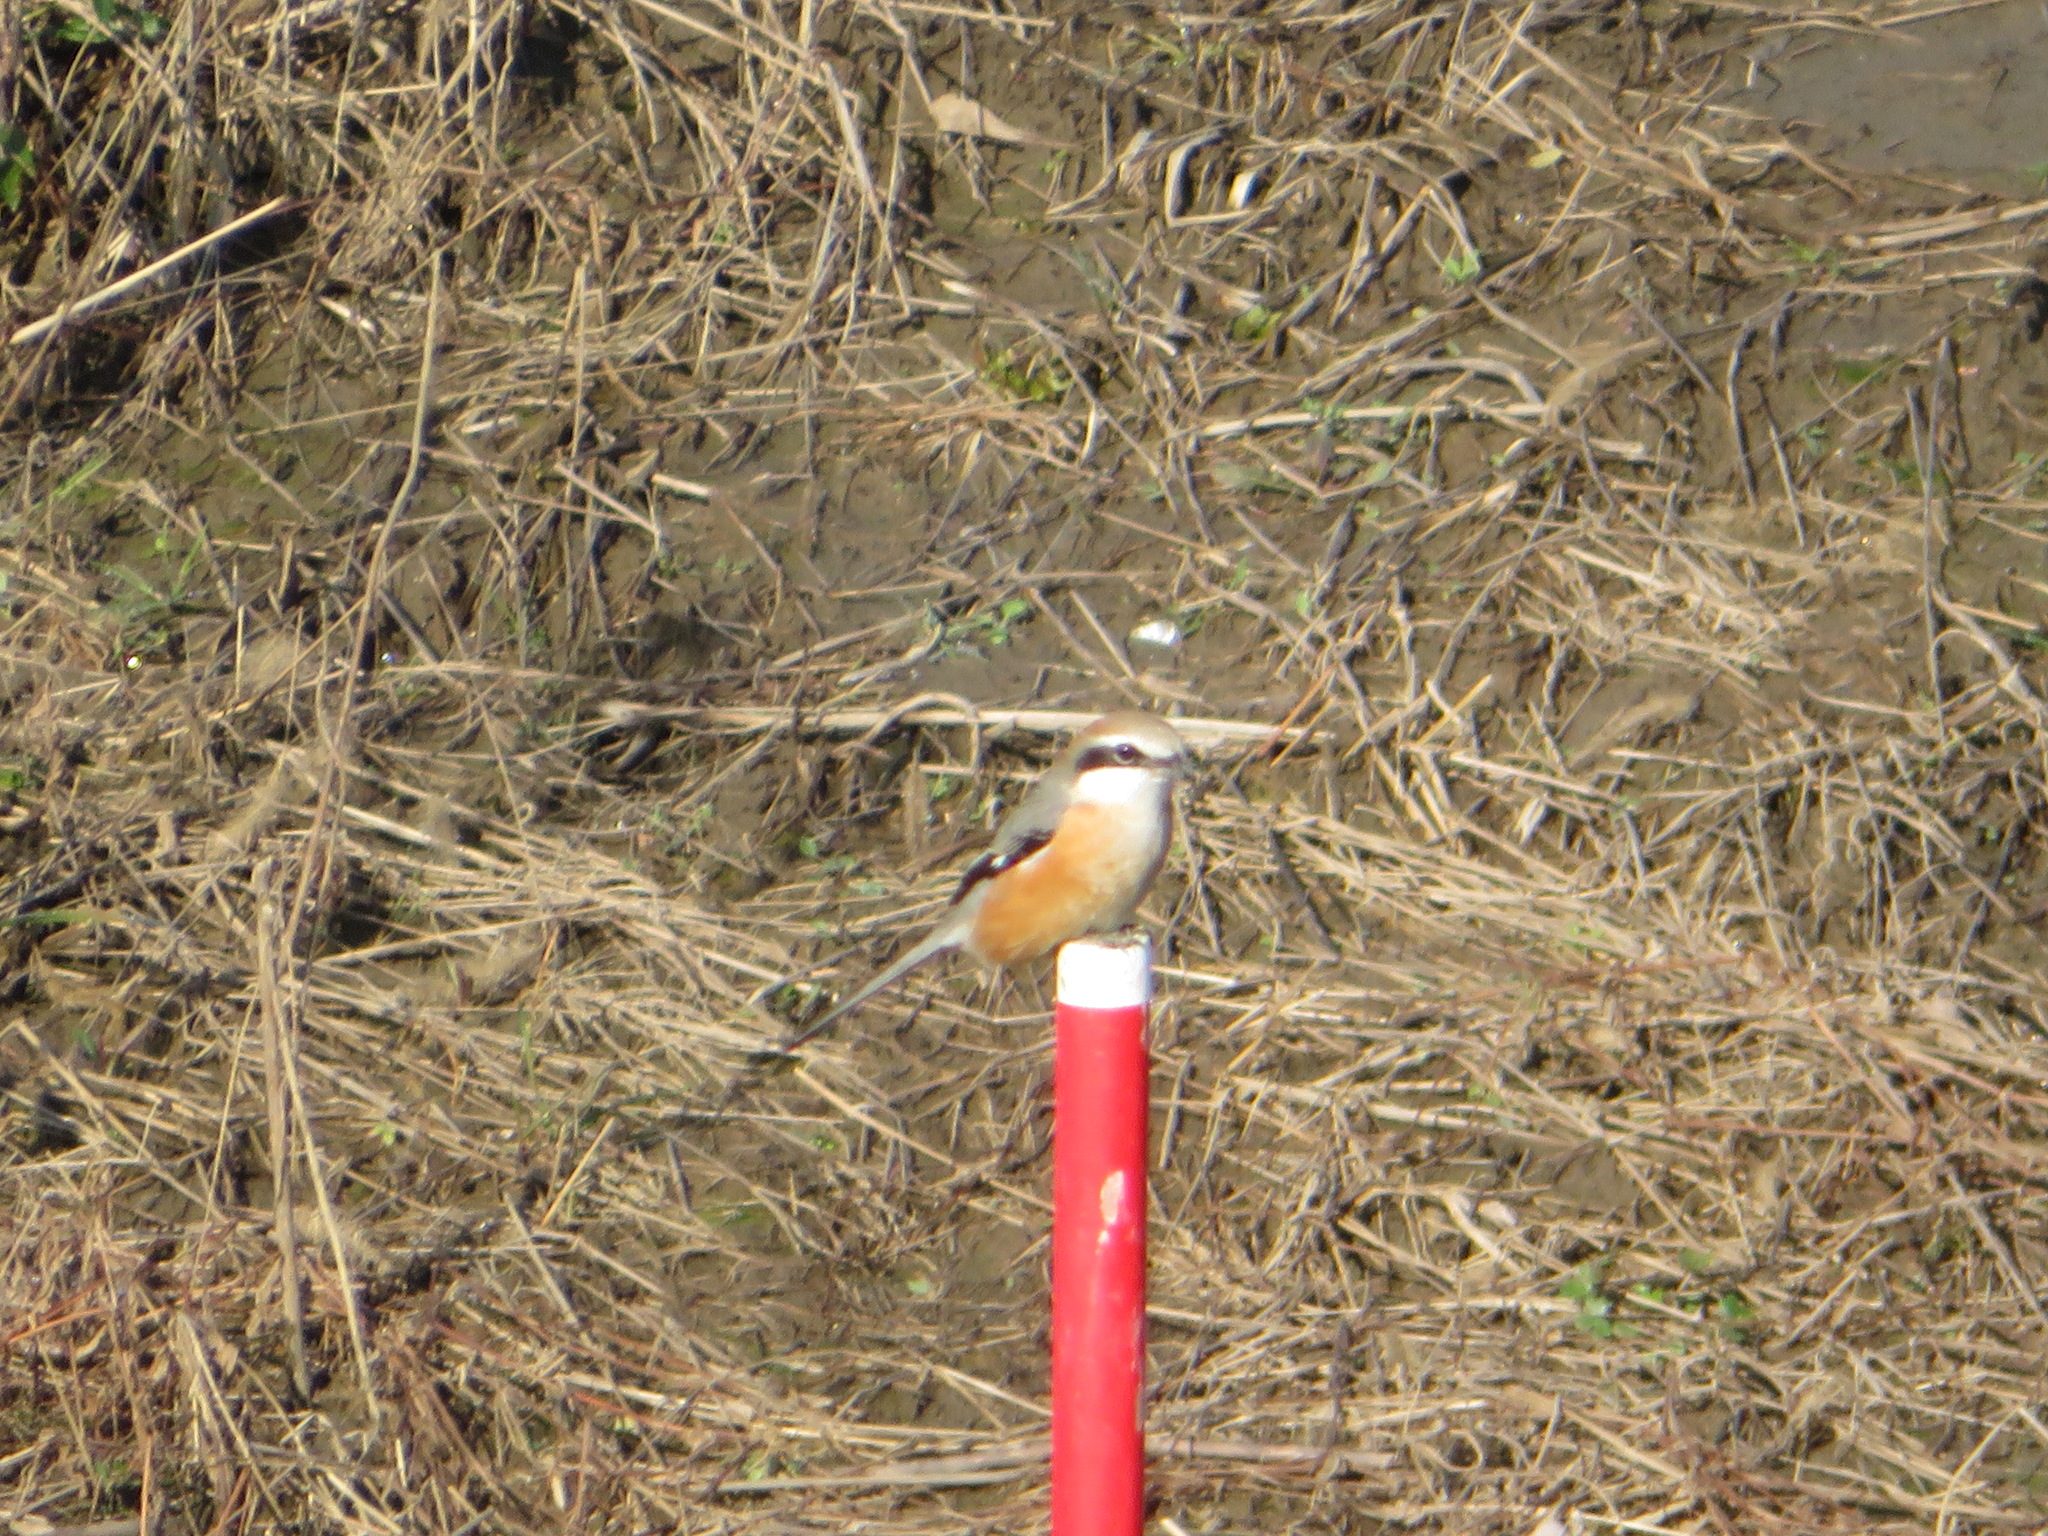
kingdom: Animalia
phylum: Chordata
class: Aves
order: Passeriformes
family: Laniidae
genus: Lanius
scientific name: Lanius bucephalus
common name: Bull-headed shrike
